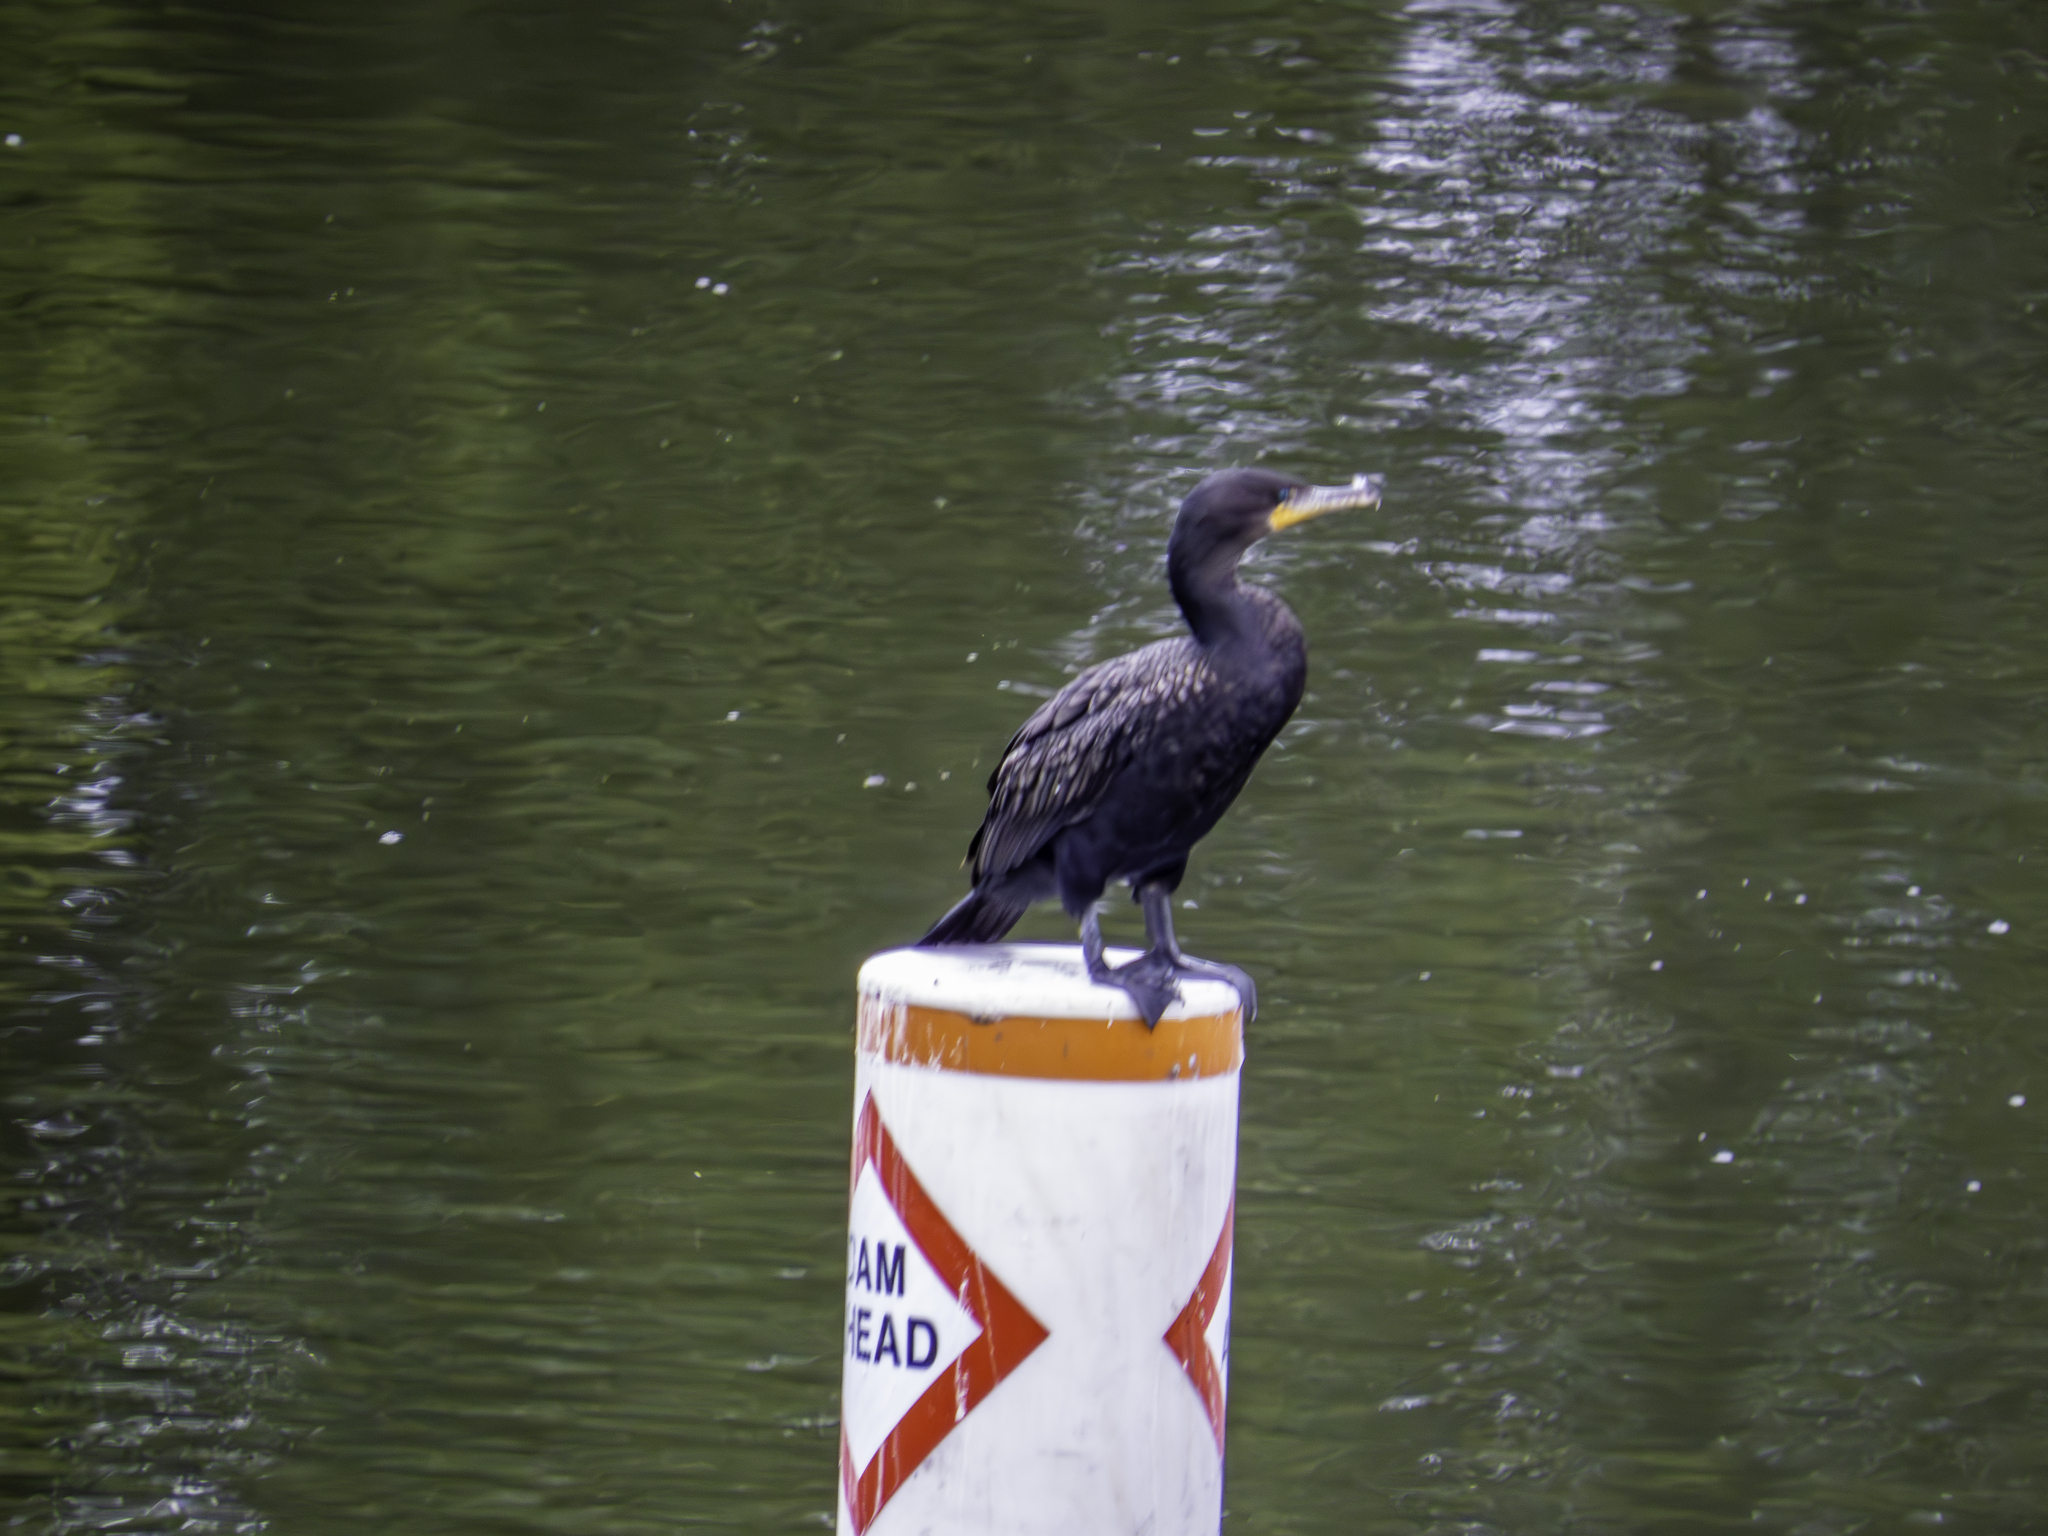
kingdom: Animalia
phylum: Chordata
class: Aves
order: Suliformes
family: Phalacrocoracidae
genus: Phalacrocorax
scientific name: Phalacrocorax auritus
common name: Double-crested cormorant
